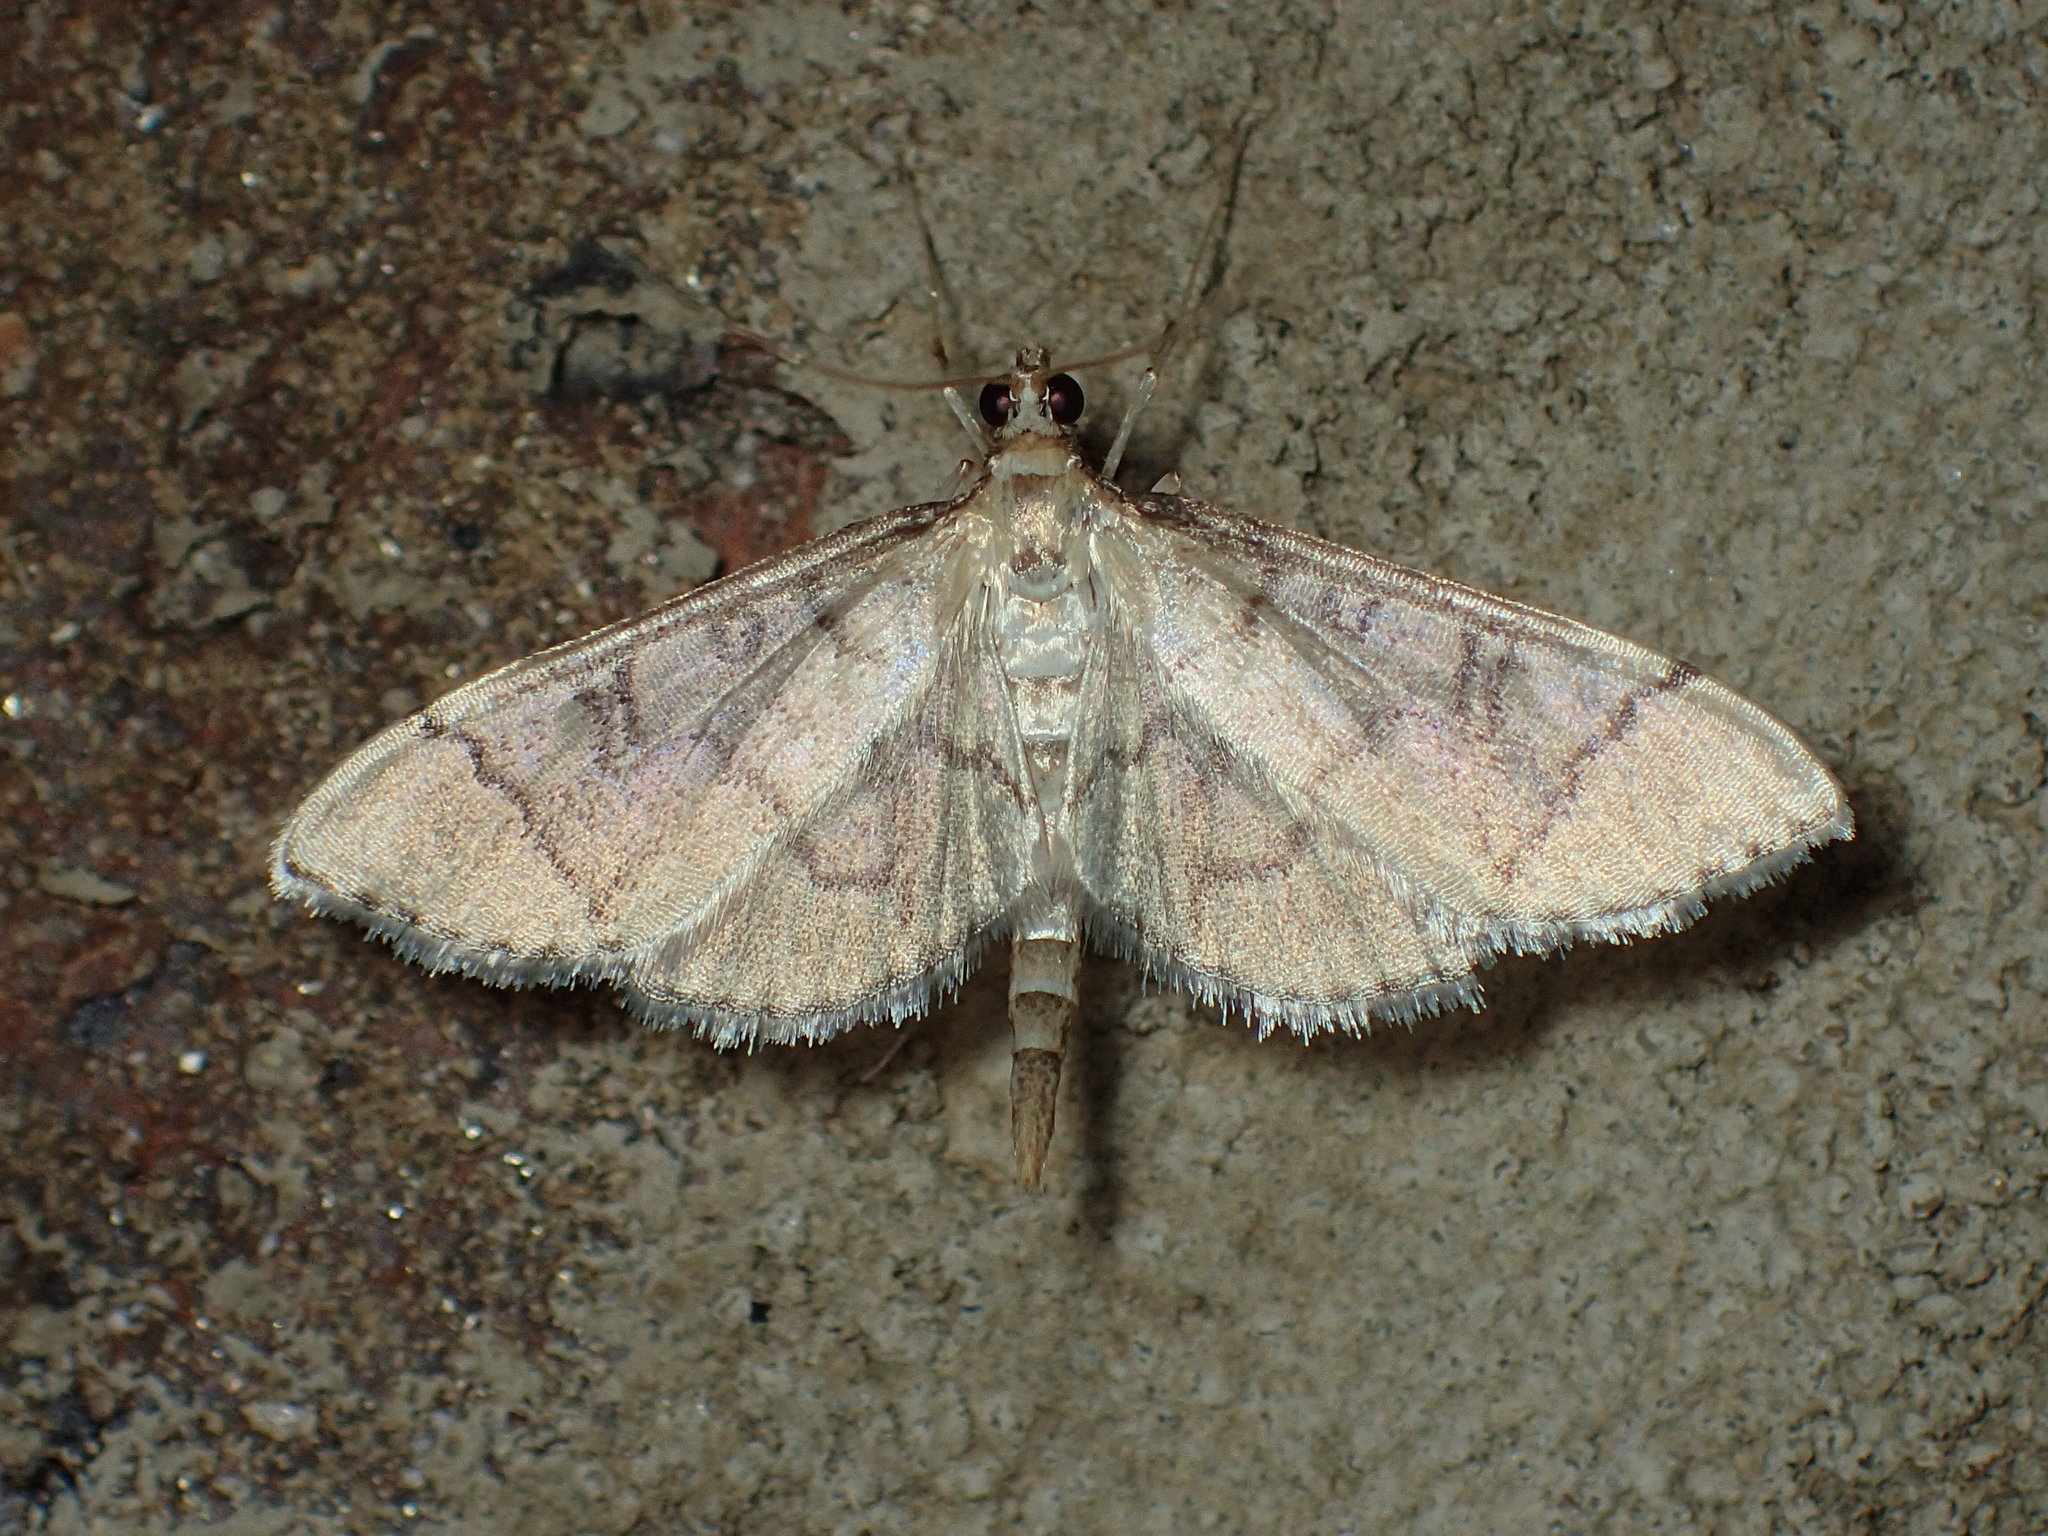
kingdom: Animalia
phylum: Arthropoda
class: Insecta
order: Lepidoptera
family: Crambidae
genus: Lamprosema
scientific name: Lamprosema Blepharomastix ranalis
